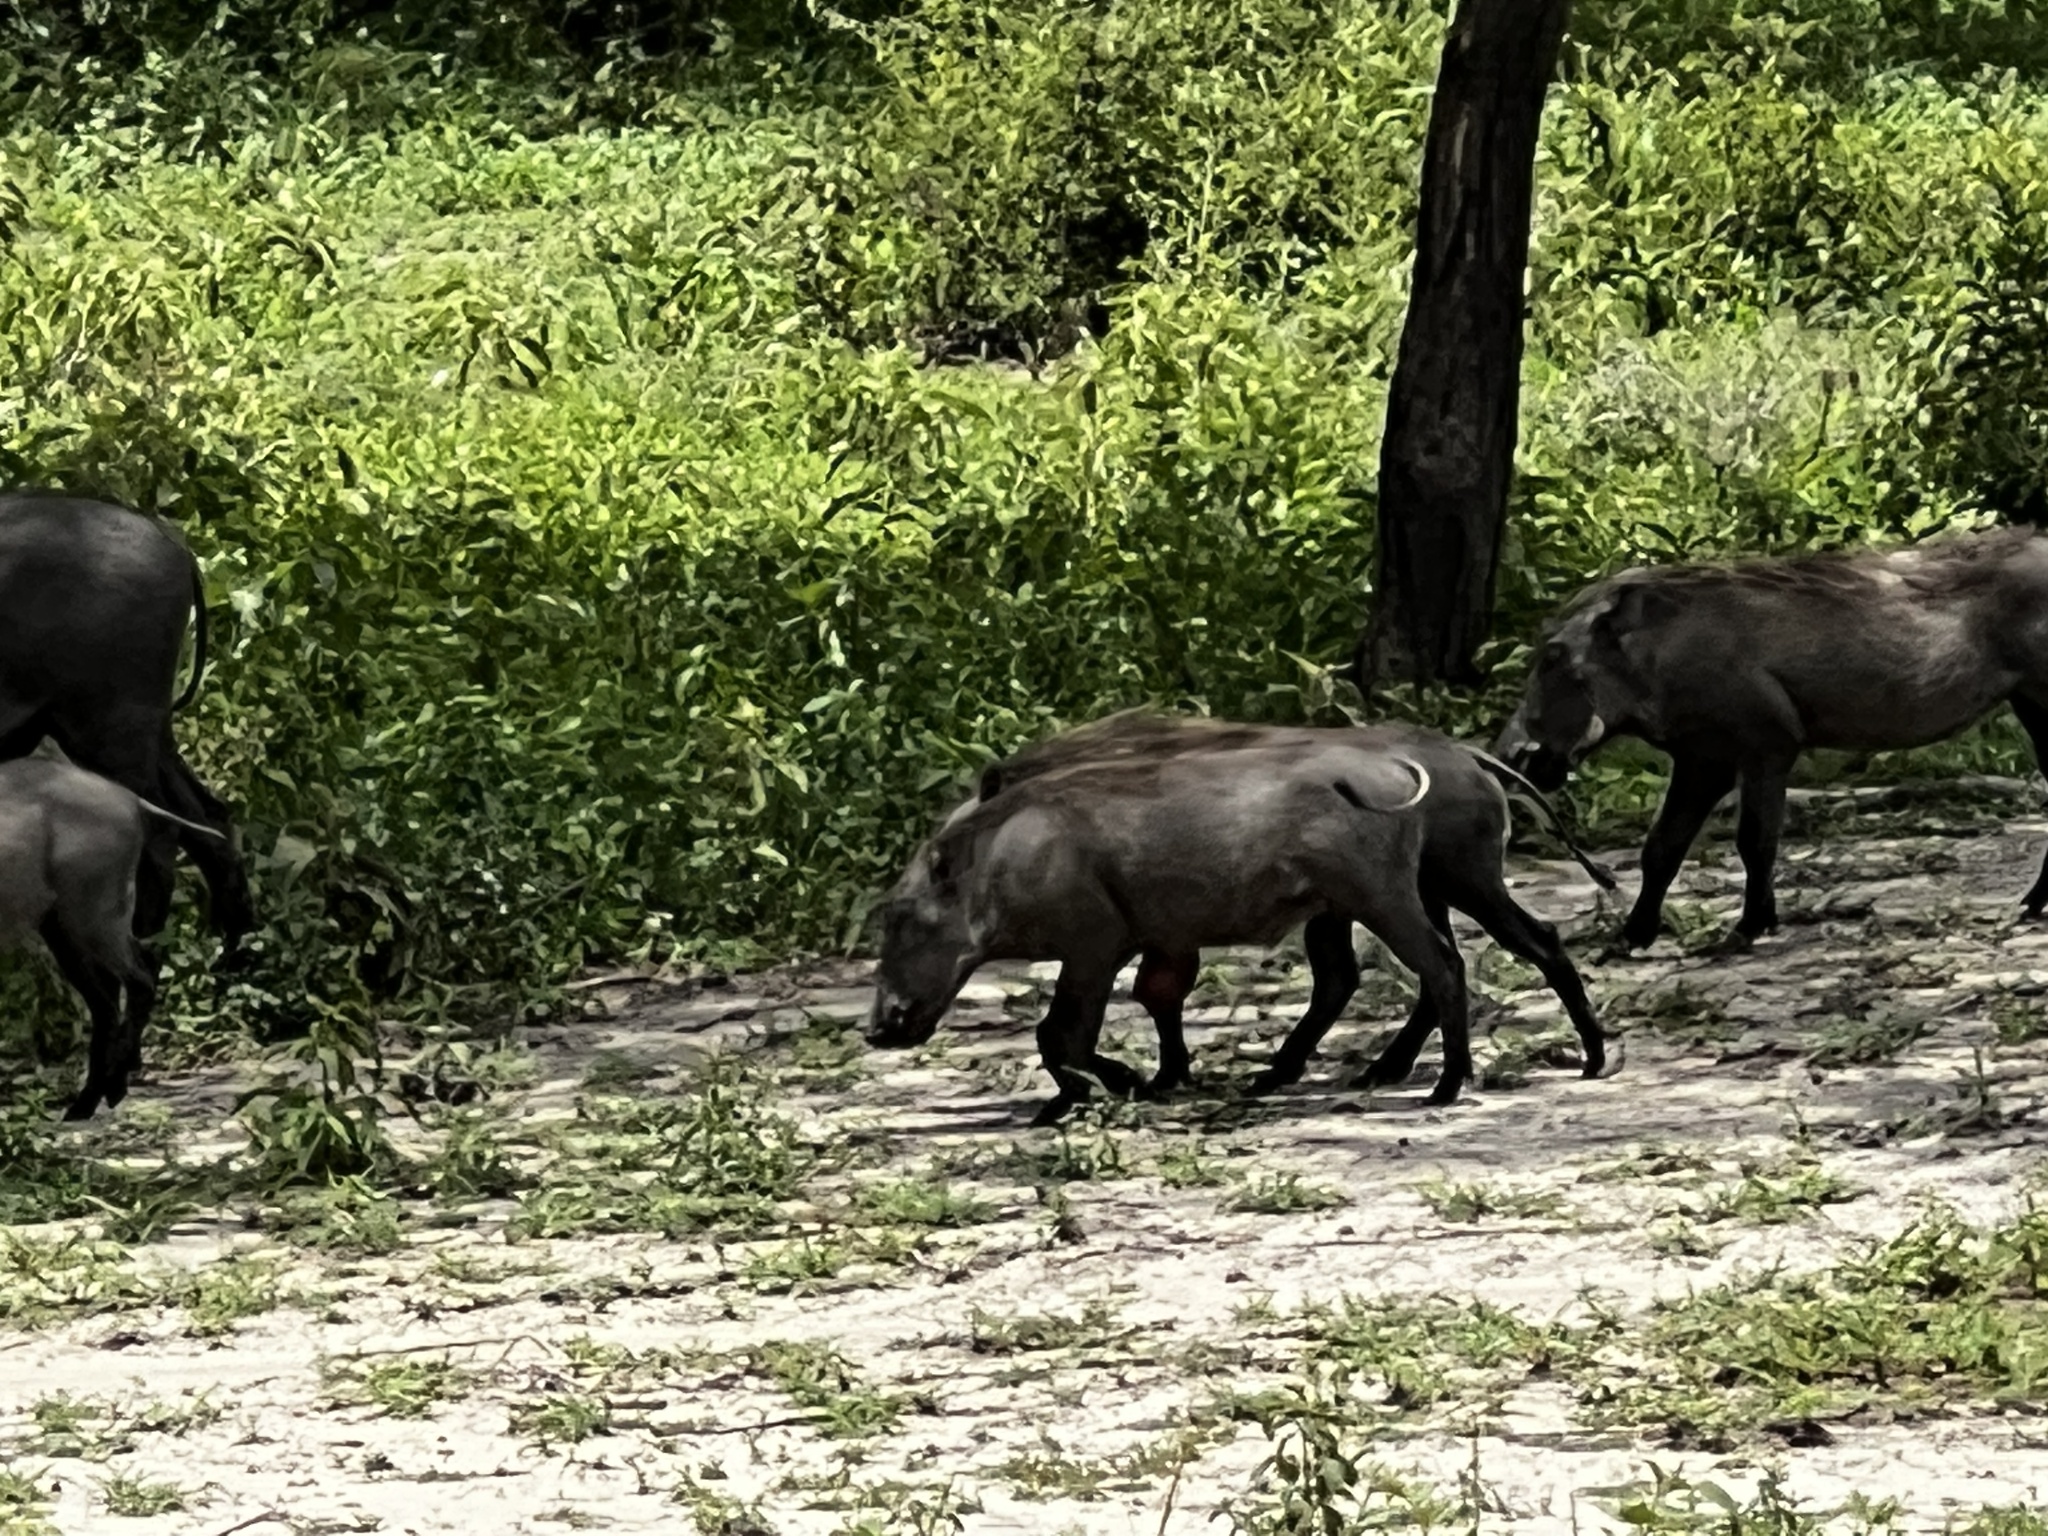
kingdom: Animalia
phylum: Chordata
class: Mammalia
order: Artiodactyla
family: Suidae
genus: Phacochoerus
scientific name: Phacochoerus africanus
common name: Common warthog
